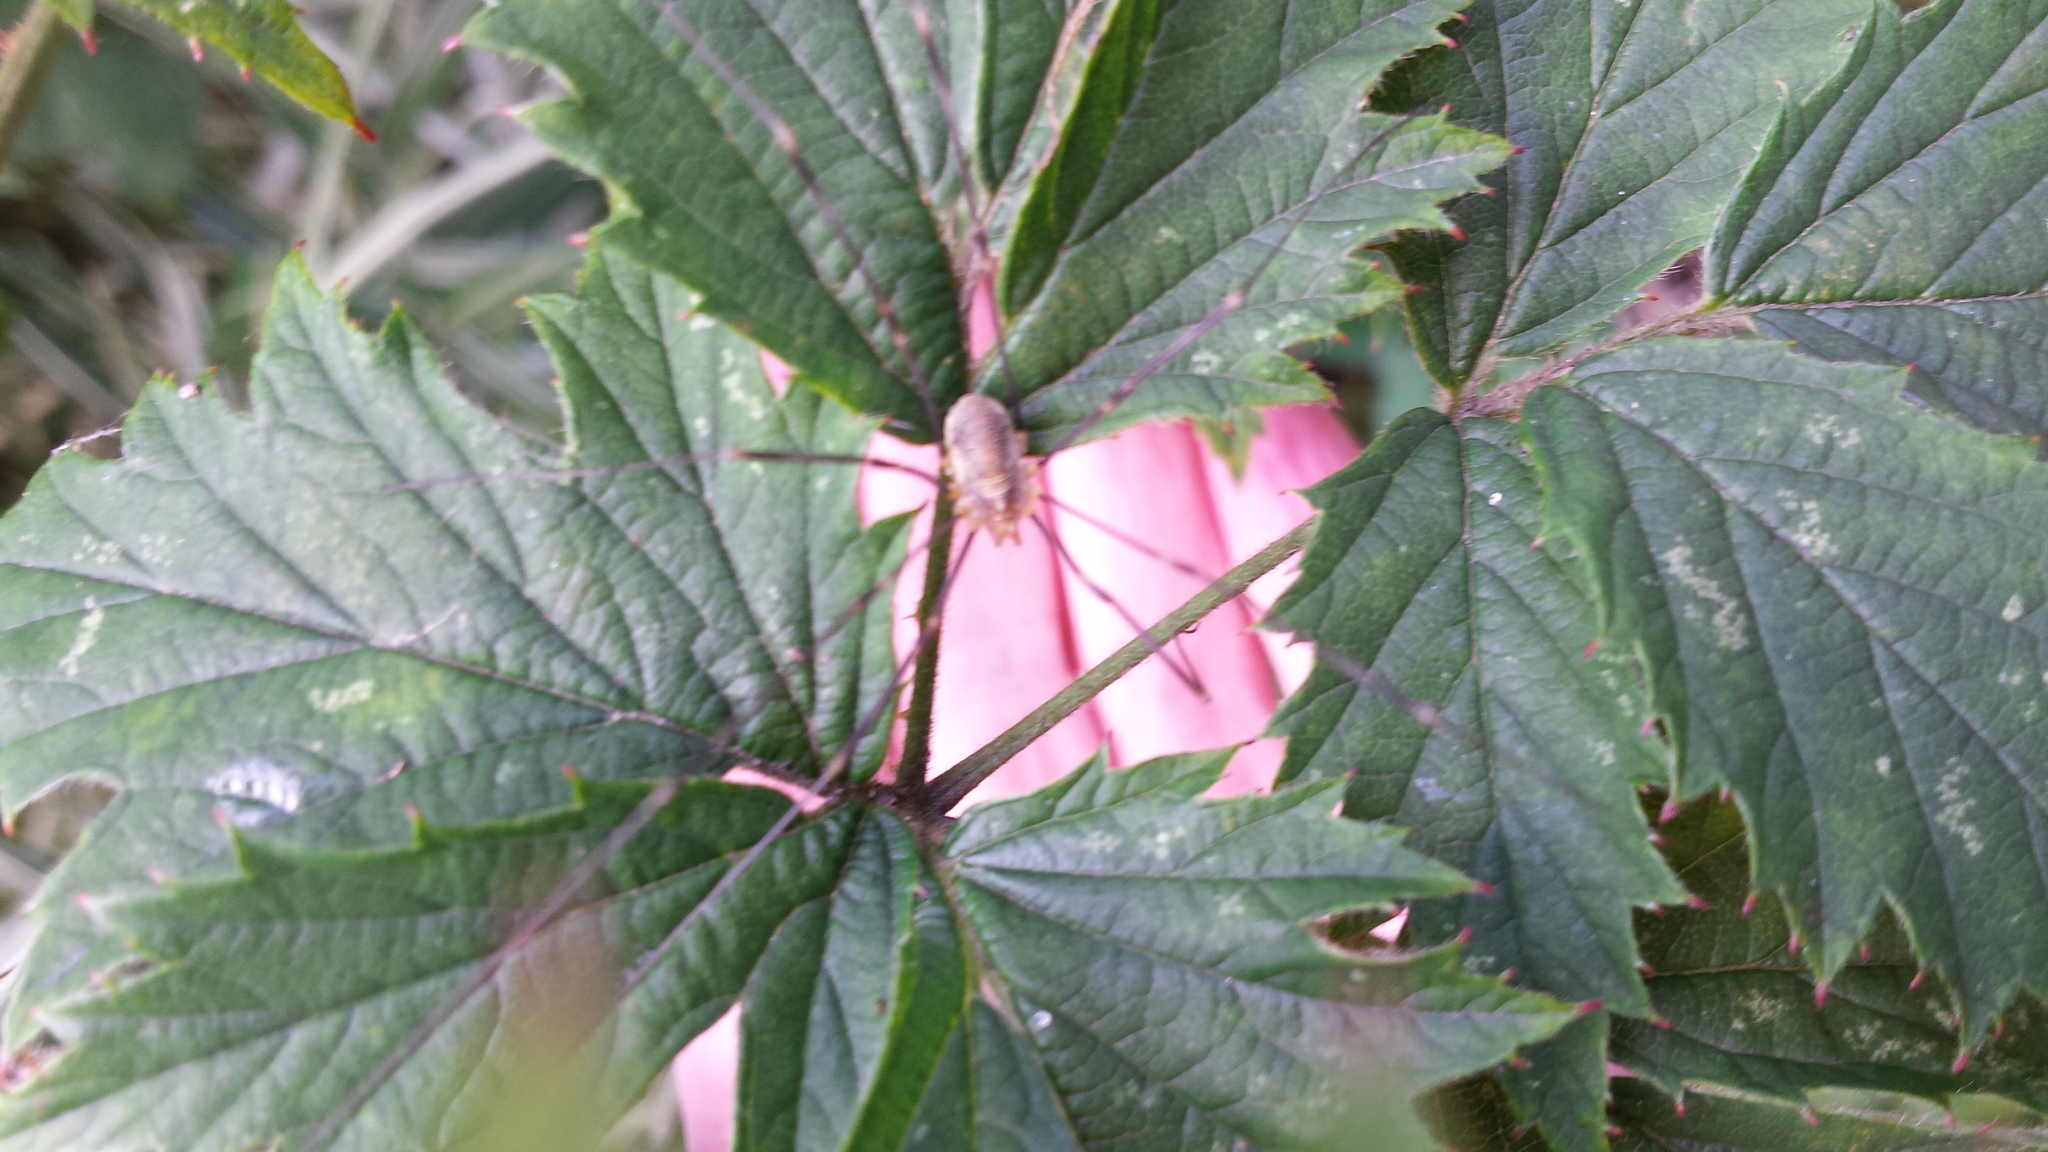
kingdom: Animalia
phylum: Arthropoda
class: Arachnida
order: Opiliones
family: Phalangiidae
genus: Opilio
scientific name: Opilio canestrinii
